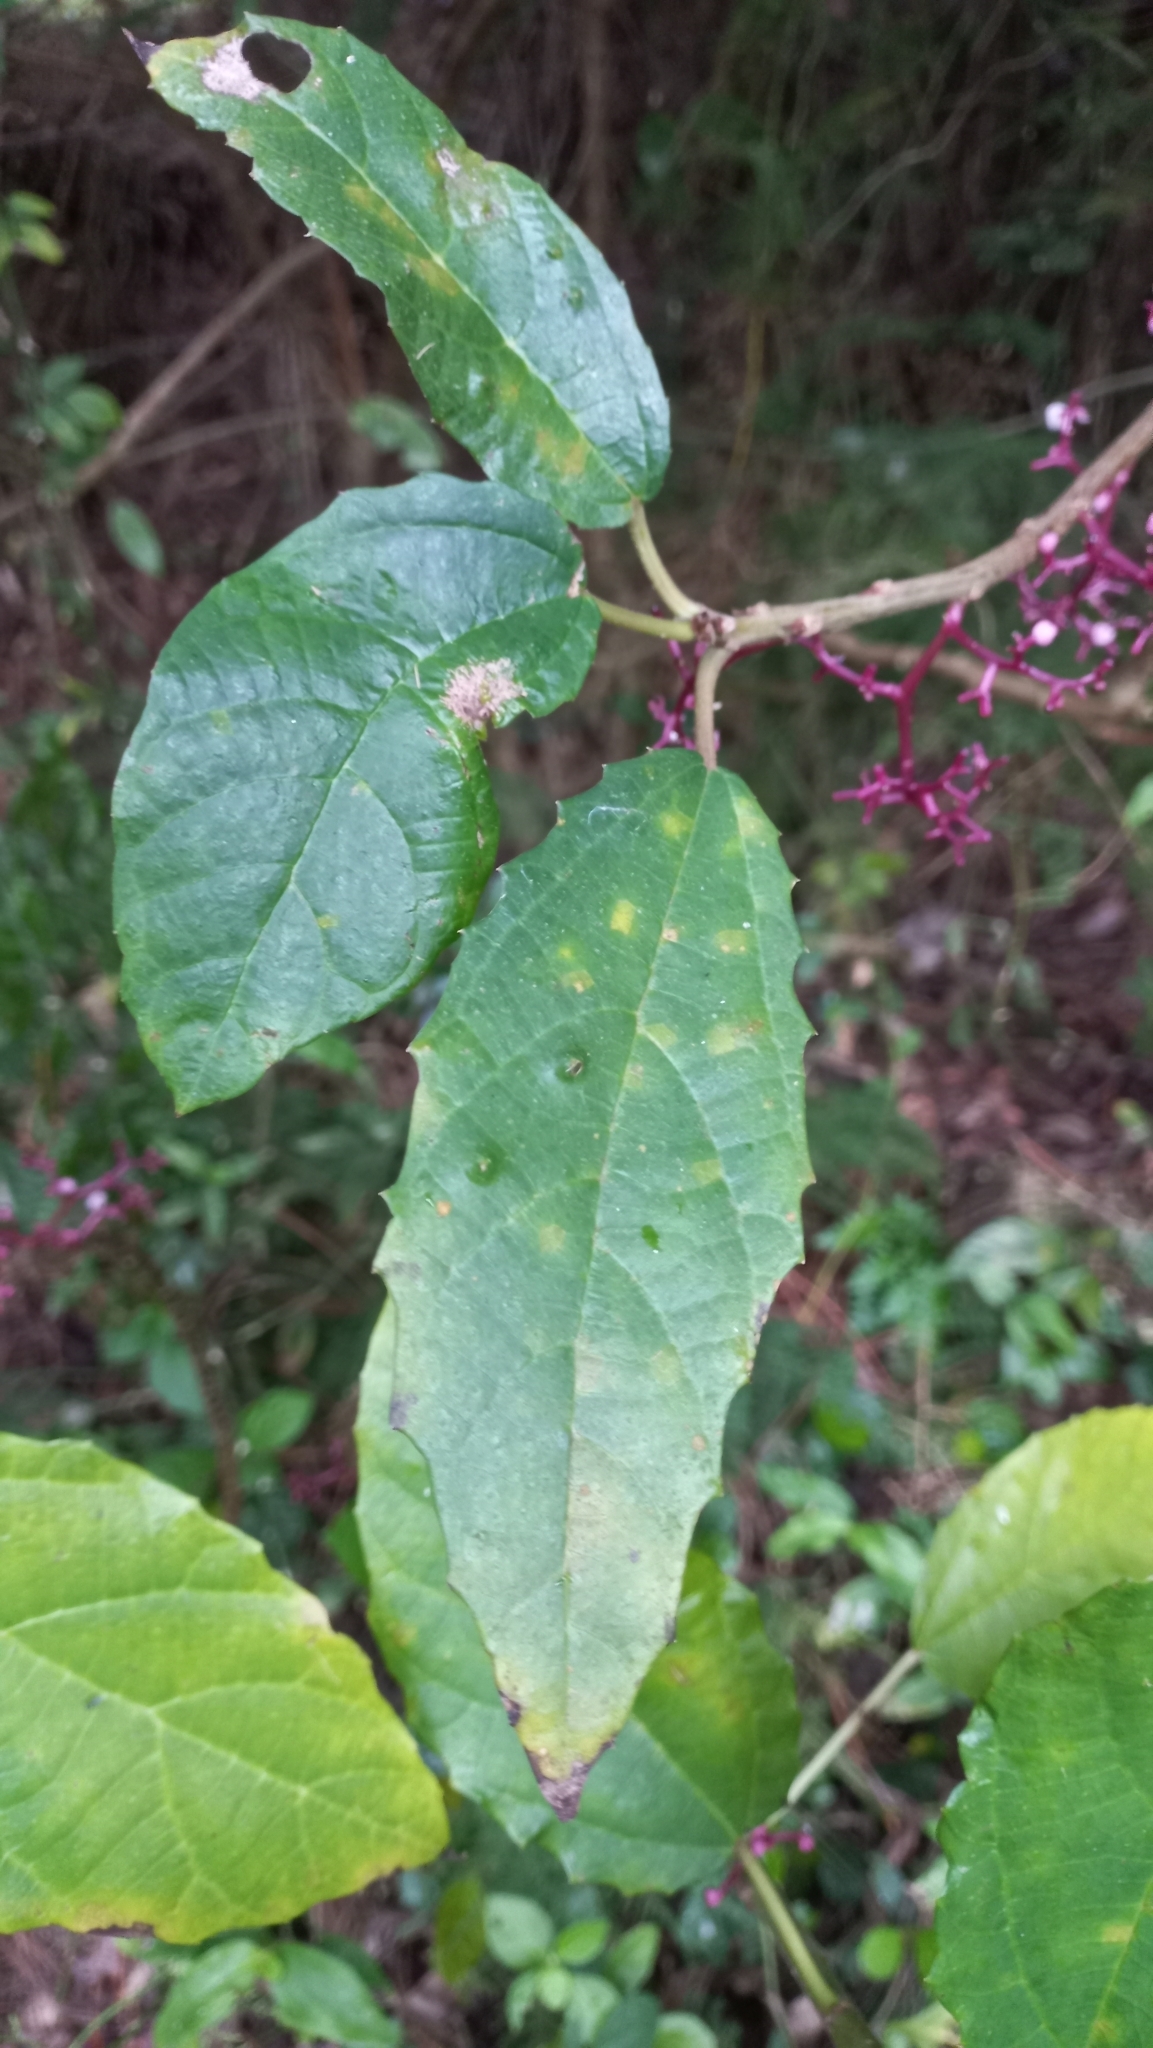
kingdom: Plantae
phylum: Tracheophyta
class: Magnoliopsida
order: Rosales
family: Urticaceae
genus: Urera
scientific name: Urera nitida
